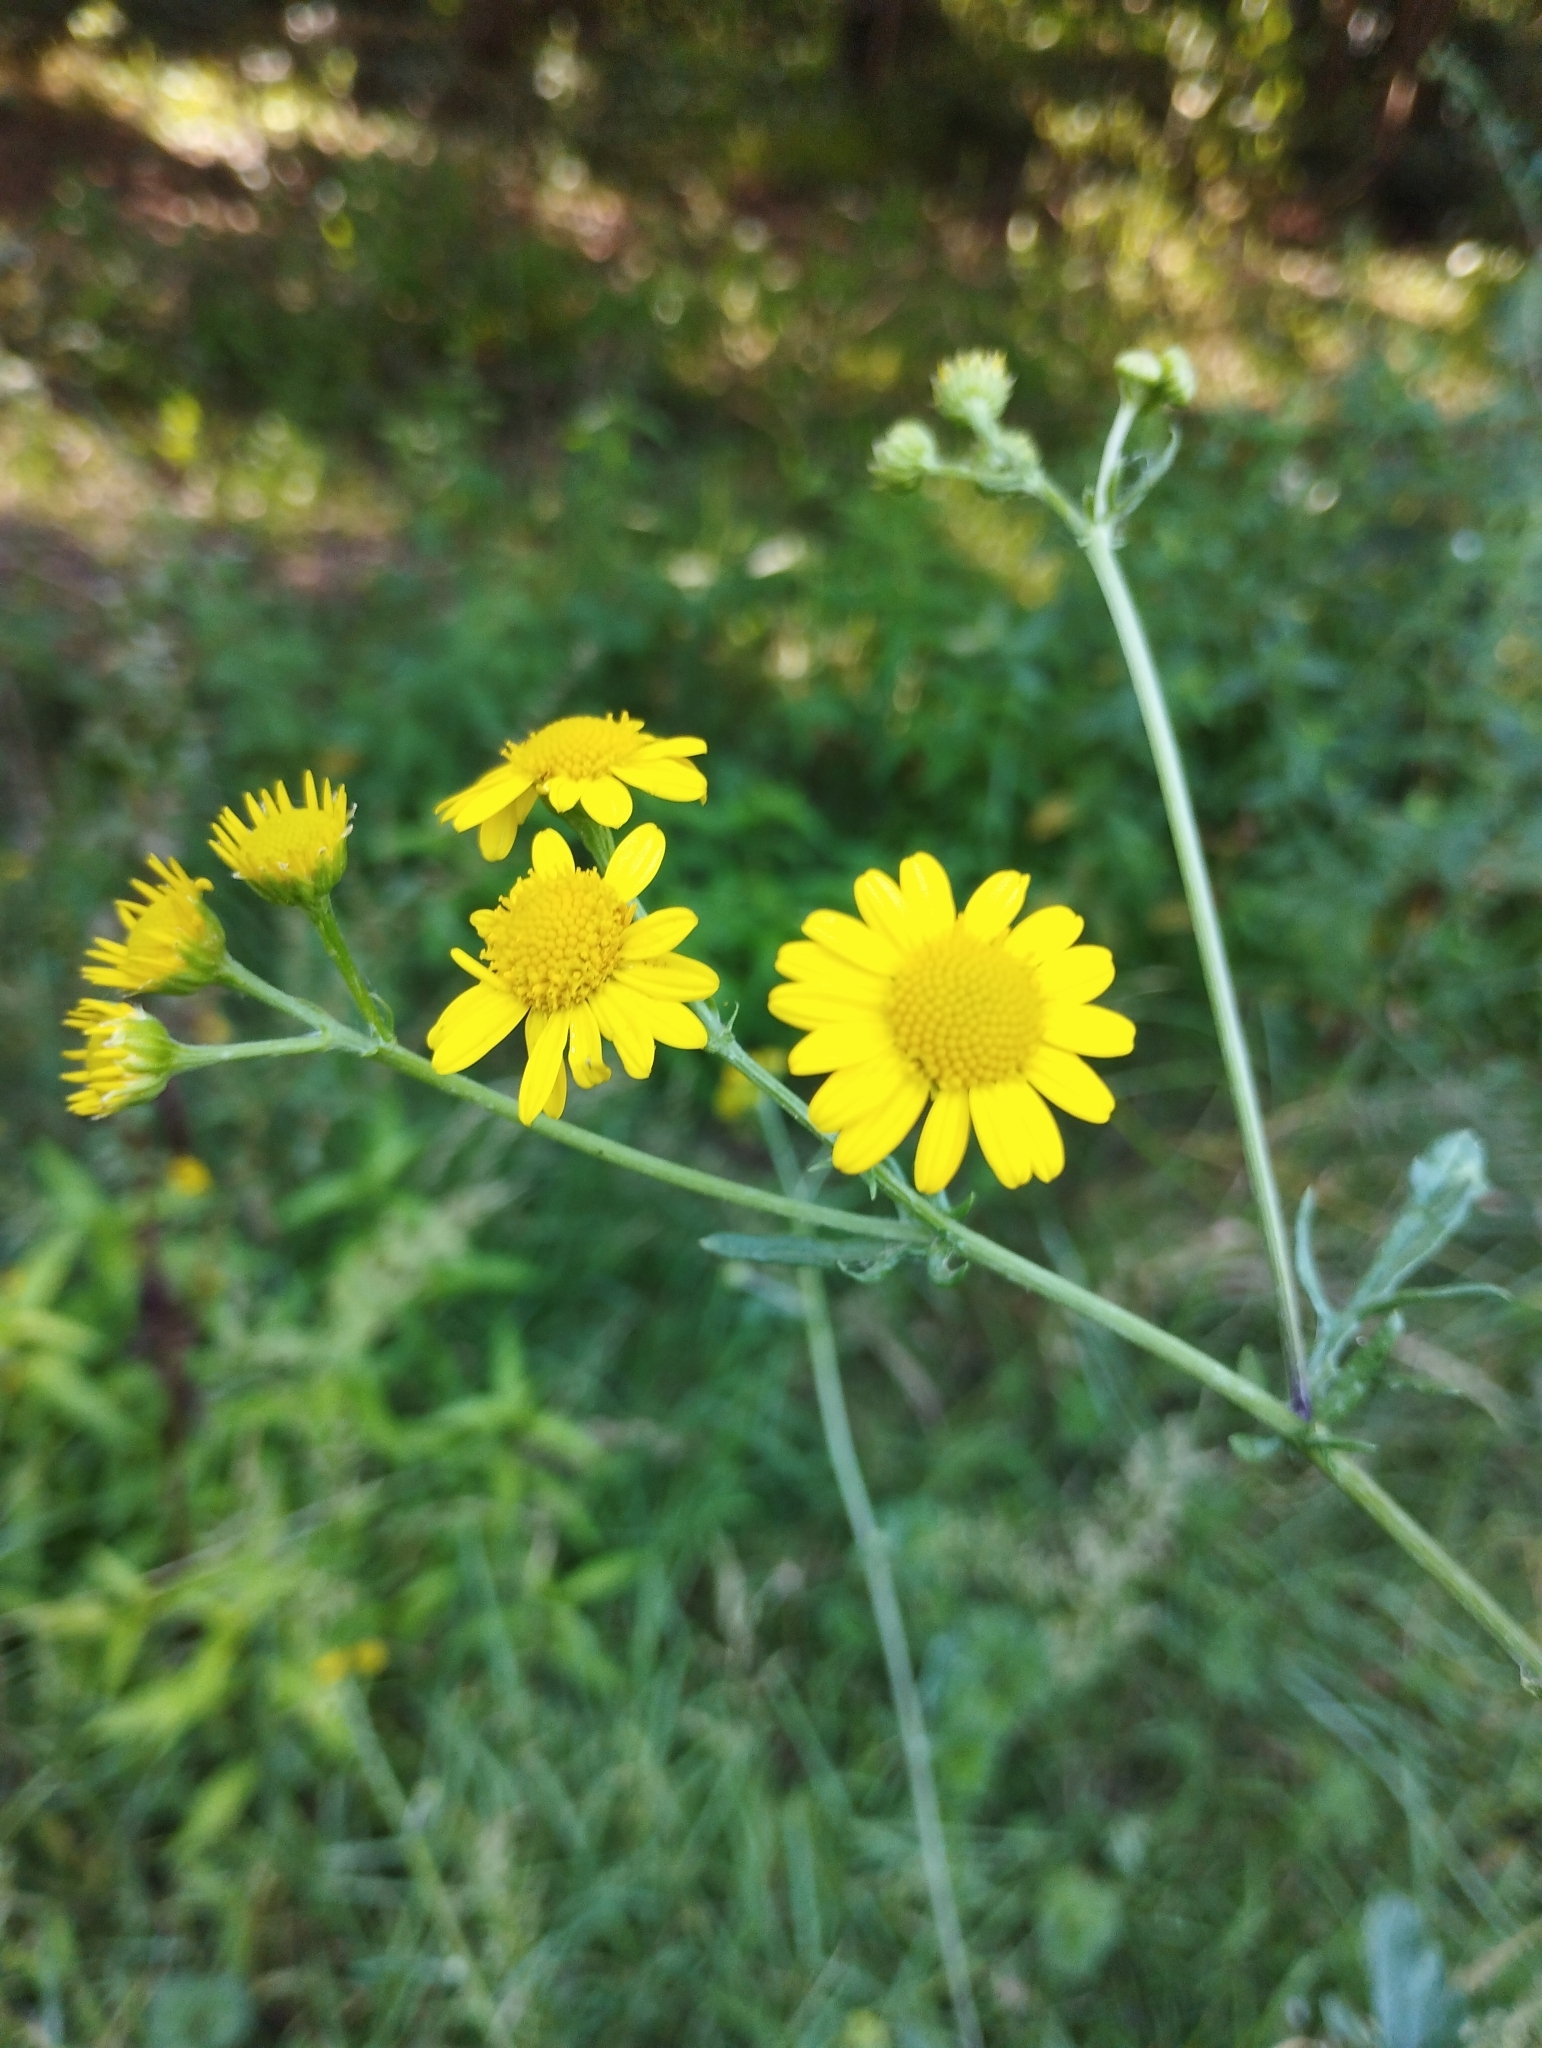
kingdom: Plantae
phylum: Tracheophyta
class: Magnoliopsida
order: Asterales
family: Asteraceae
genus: Jacobaea
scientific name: Jacobaea aquatica
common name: Water ragwort
